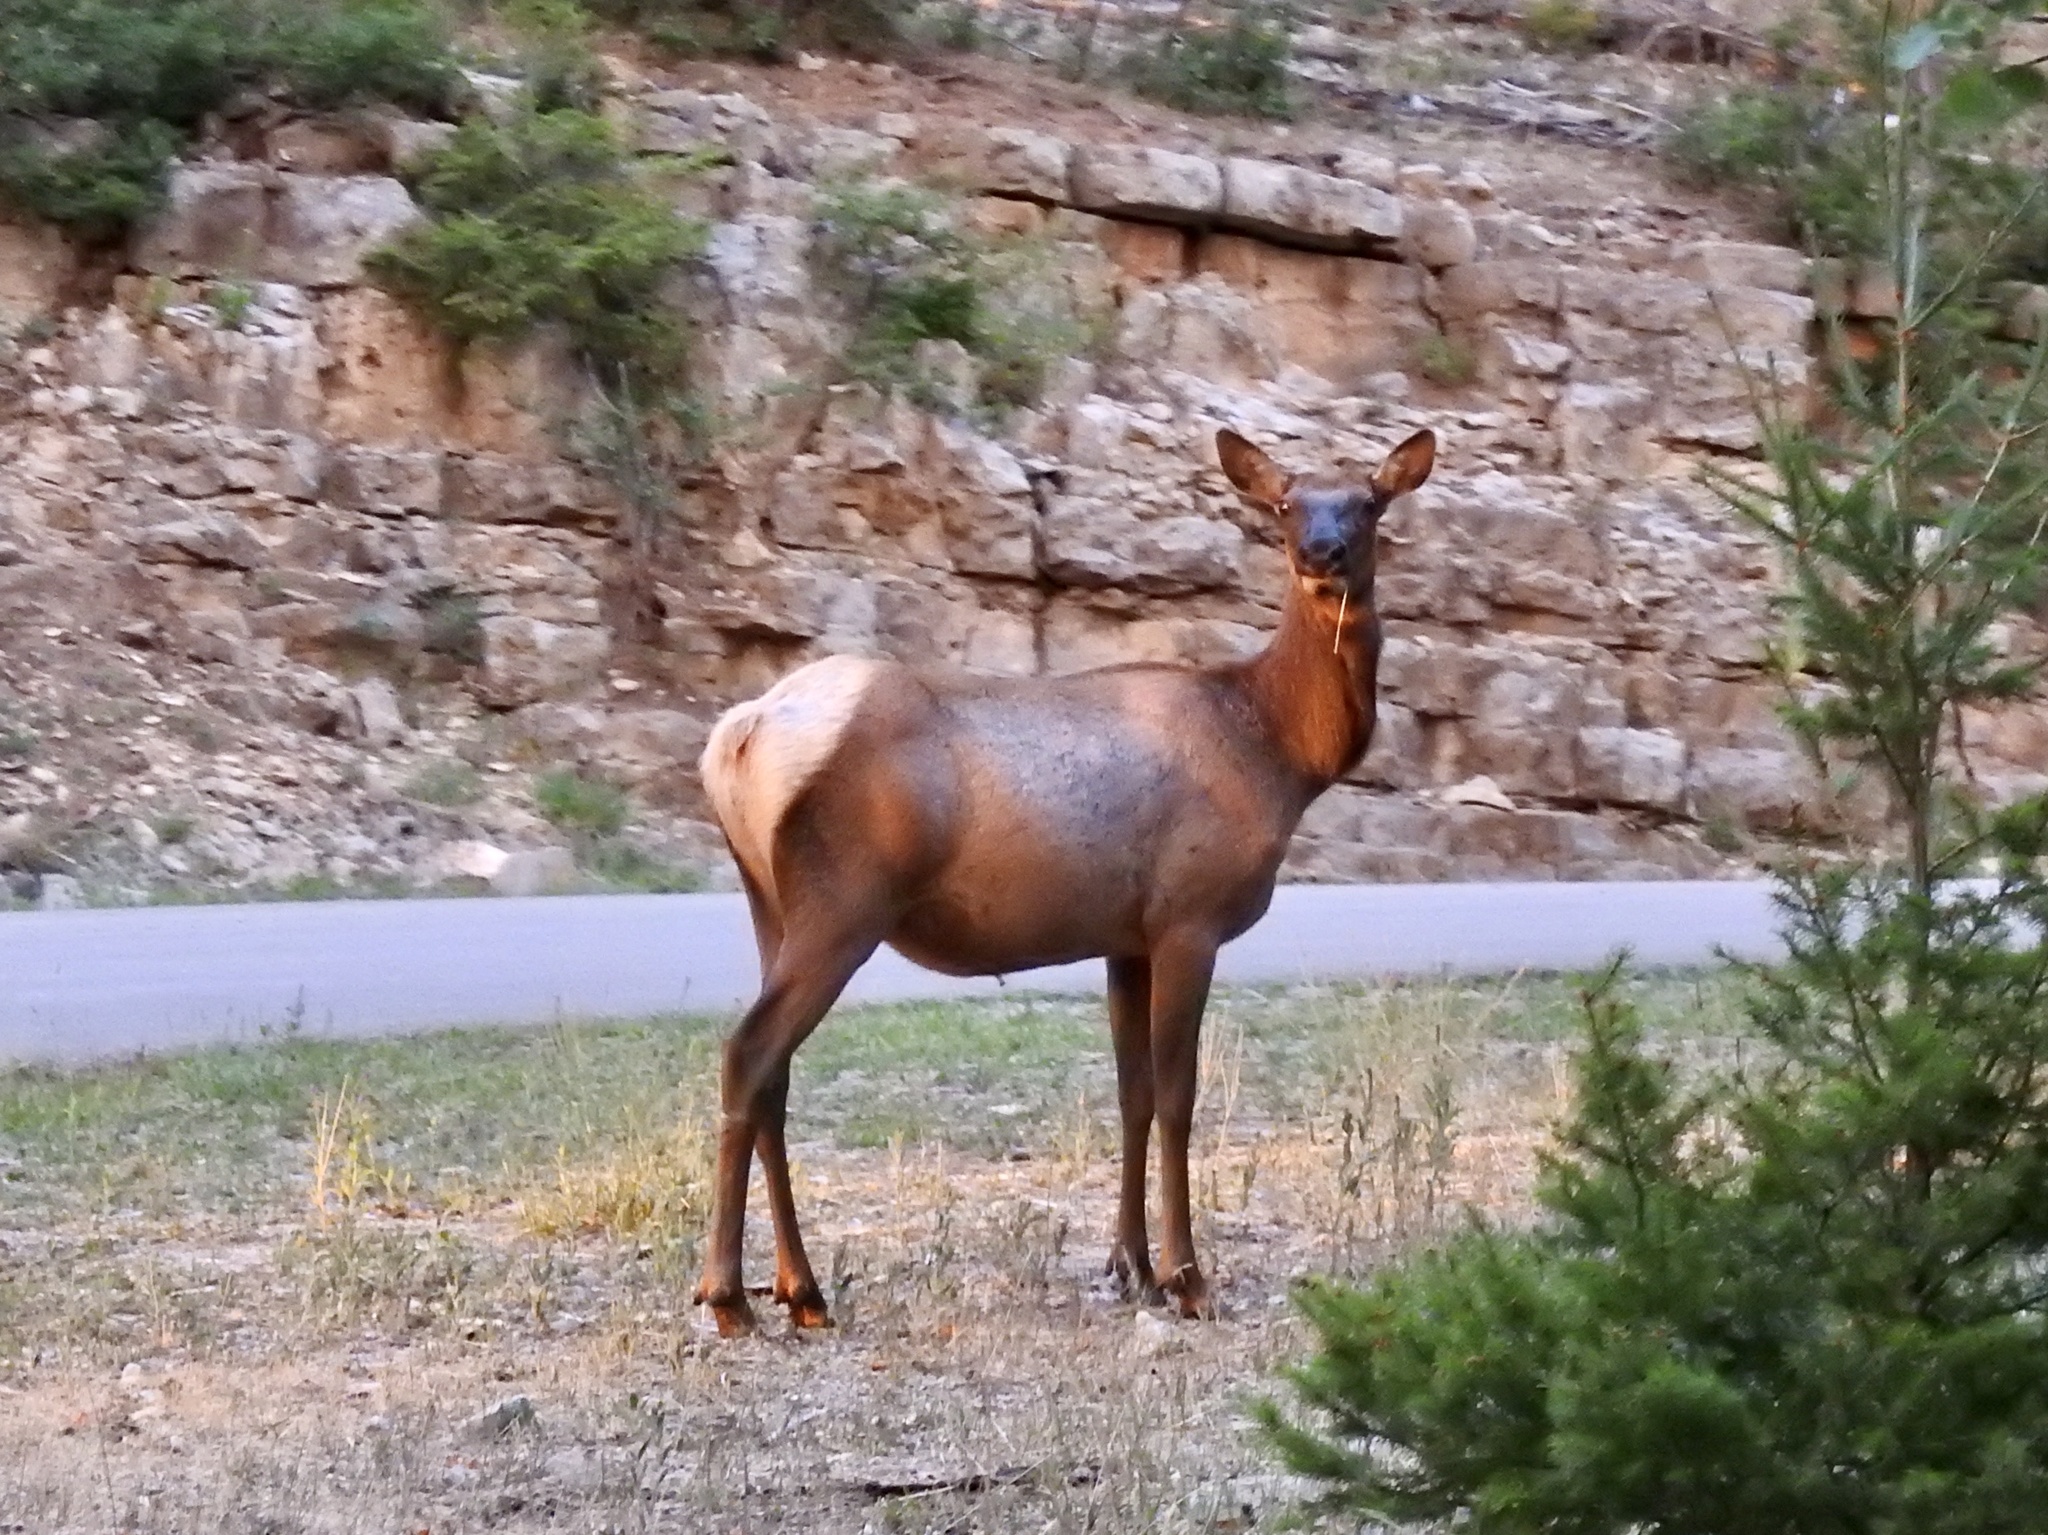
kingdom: Animalia
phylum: Chordata
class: Mammalia
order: Artiodactyla
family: Cervidae
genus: Cervus
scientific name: Cervus elaphus
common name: Red deer
